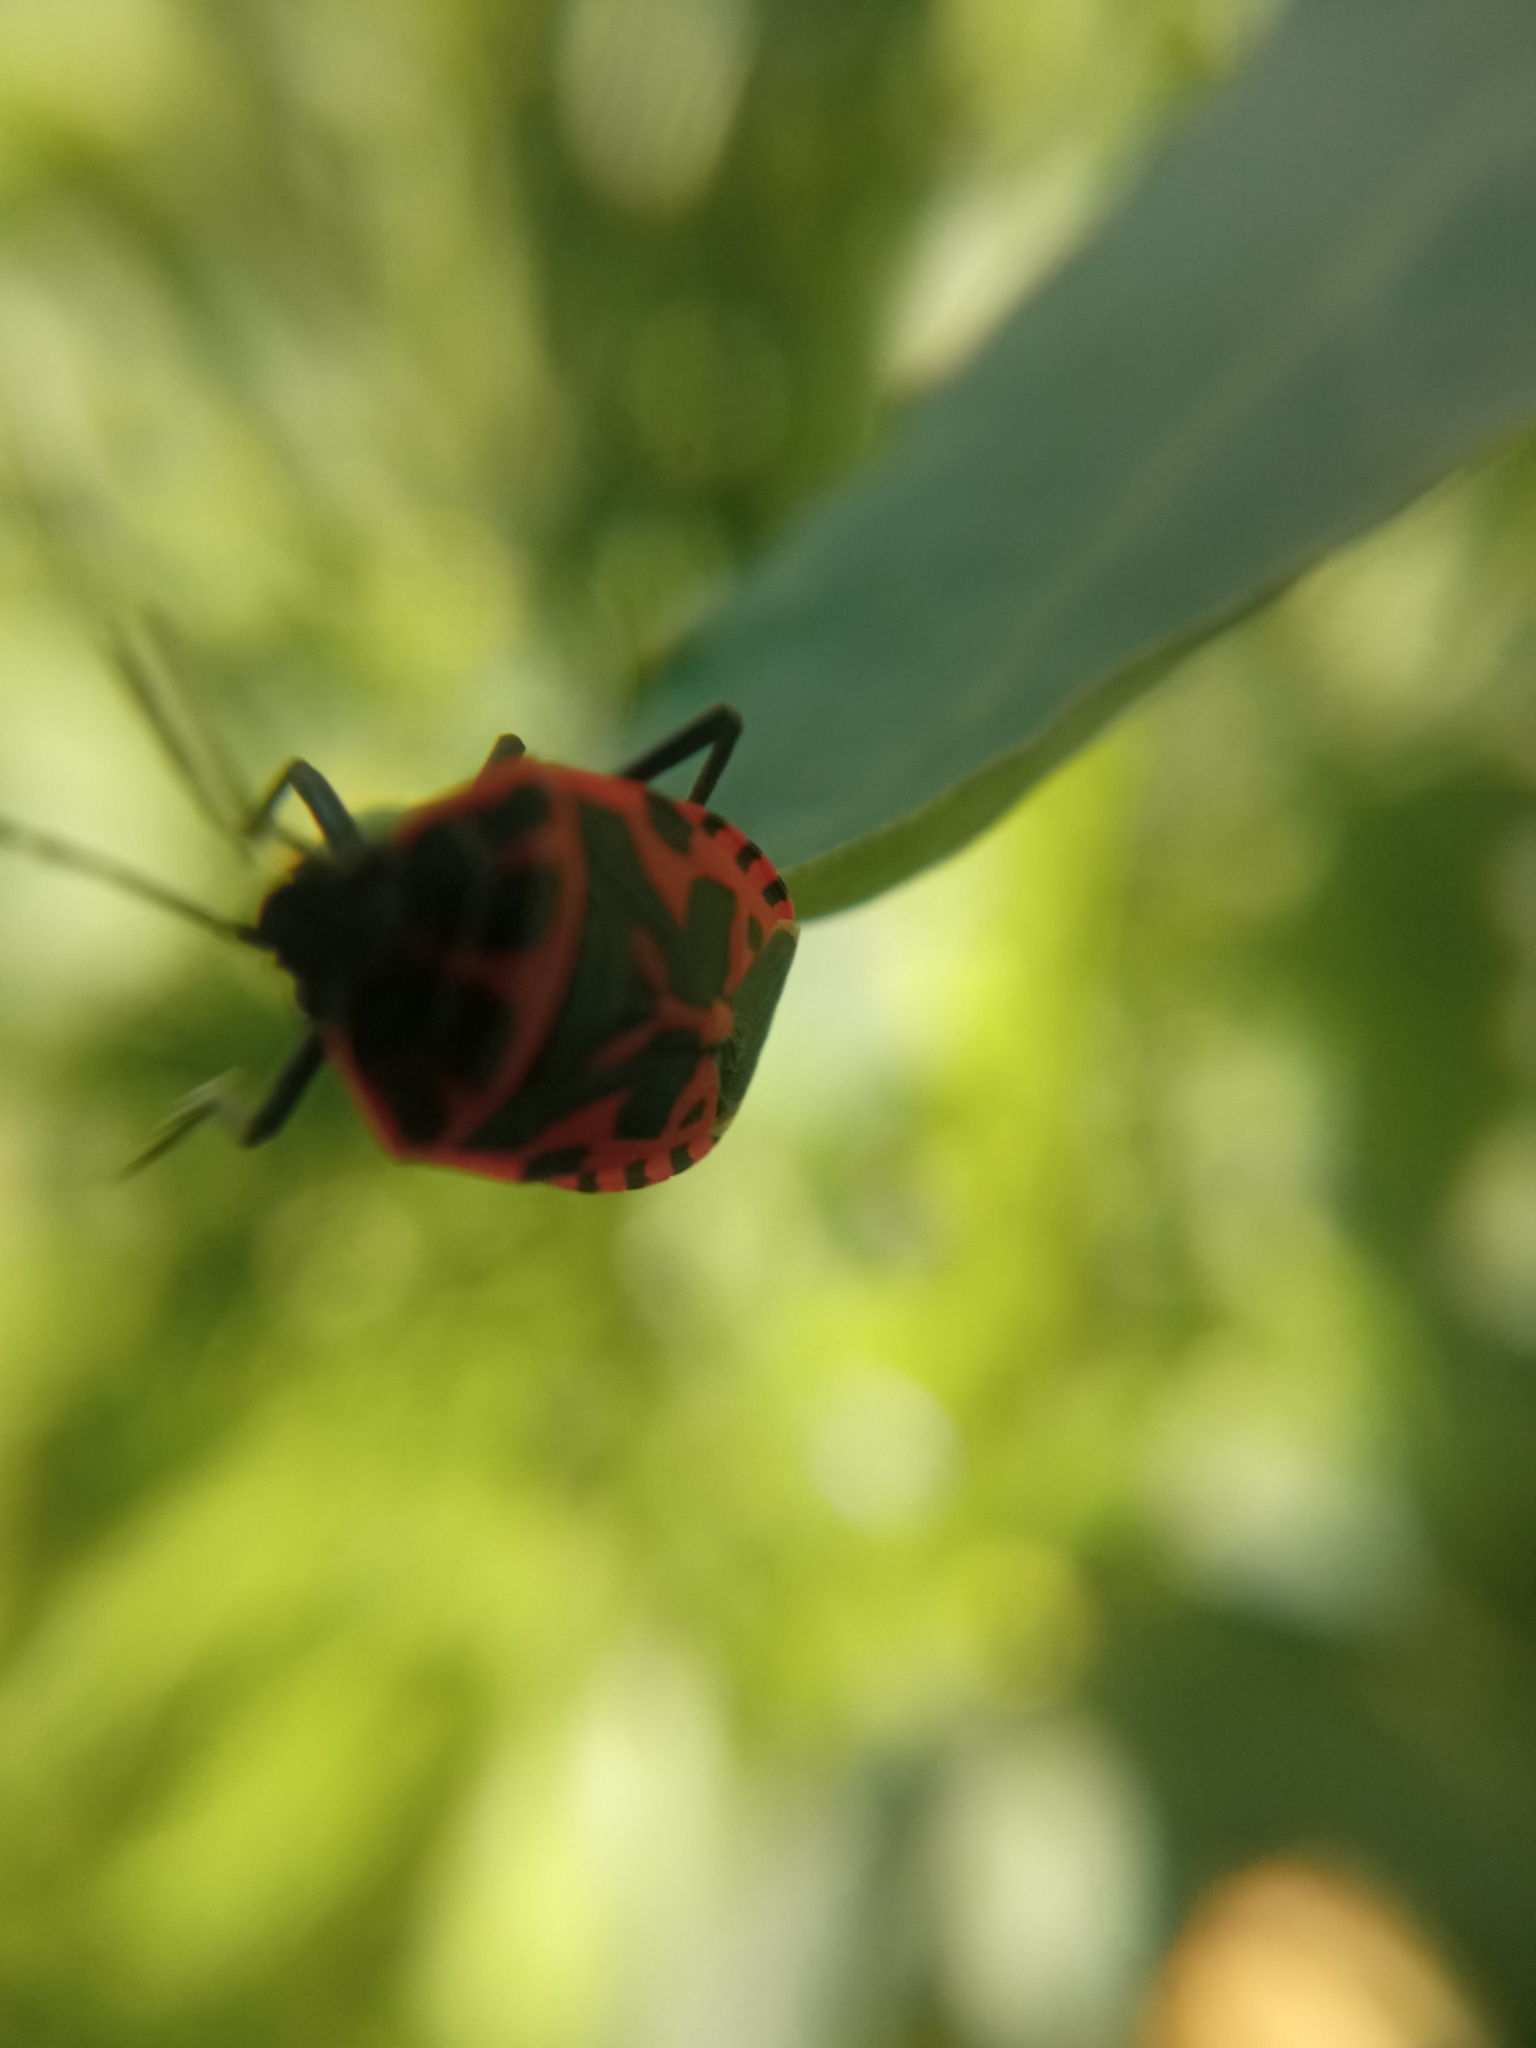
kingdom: Animalia
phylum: Arthropoda
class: Insecta
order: Hemiptera
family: Pentatomidae
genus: Eurydema
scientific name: Eurydema ventralis
